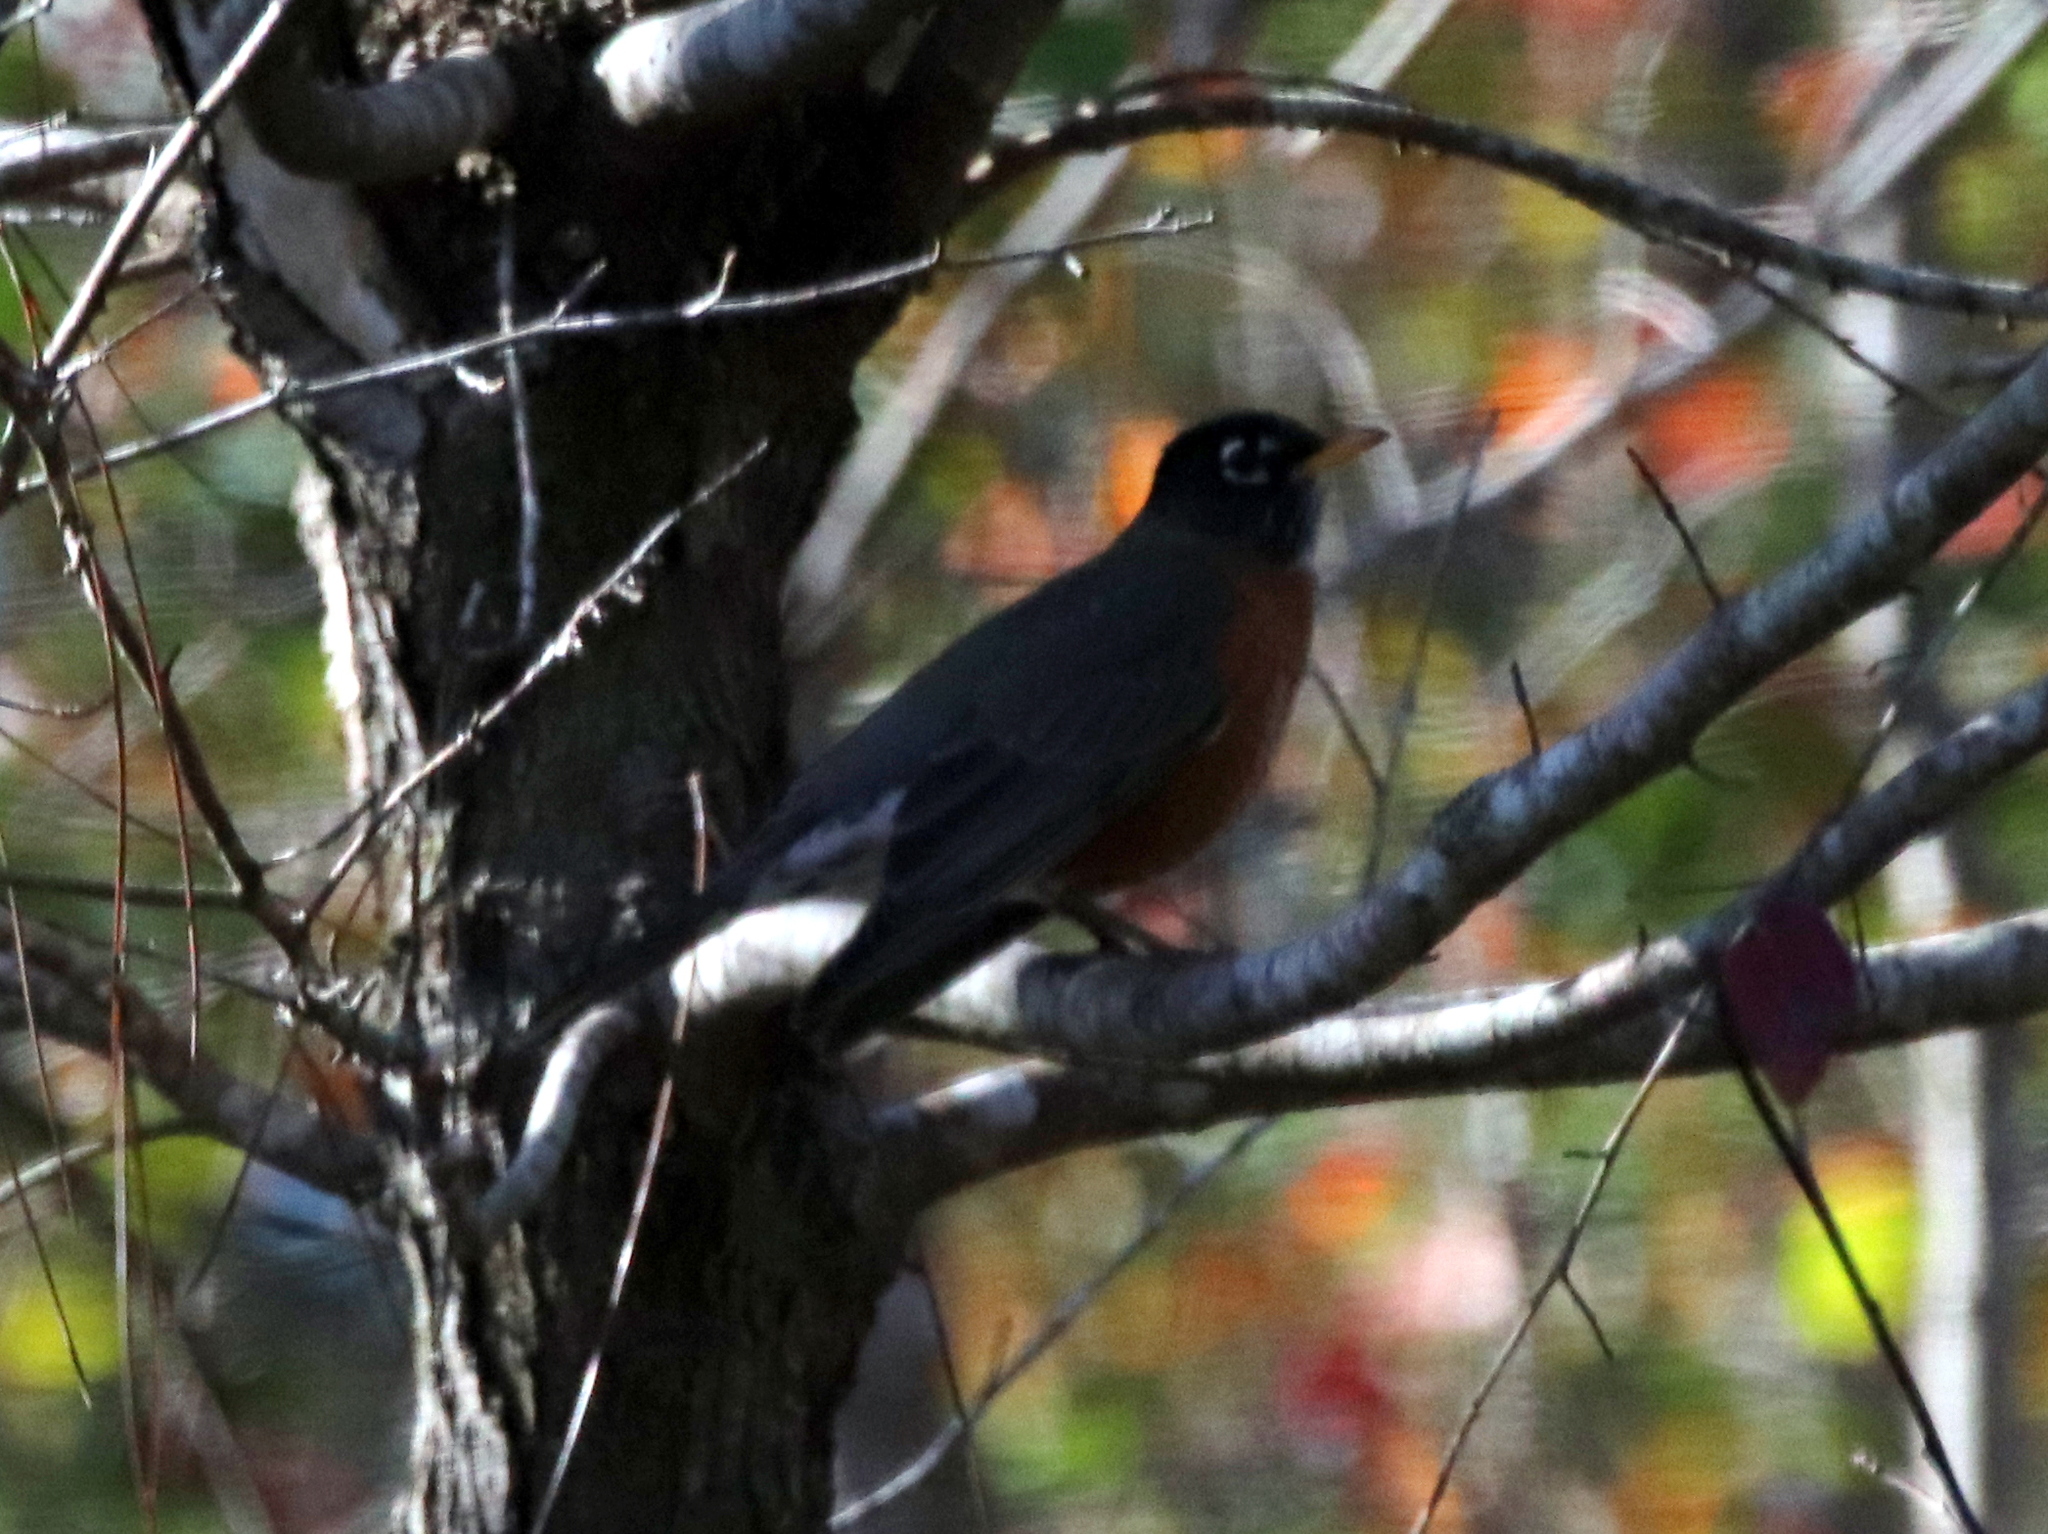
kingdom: Animalia
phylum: Chordata
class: Aves
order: Passeriformes
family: Turdidae
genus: Turdus
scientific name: Turdus migratorius
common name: American robin
